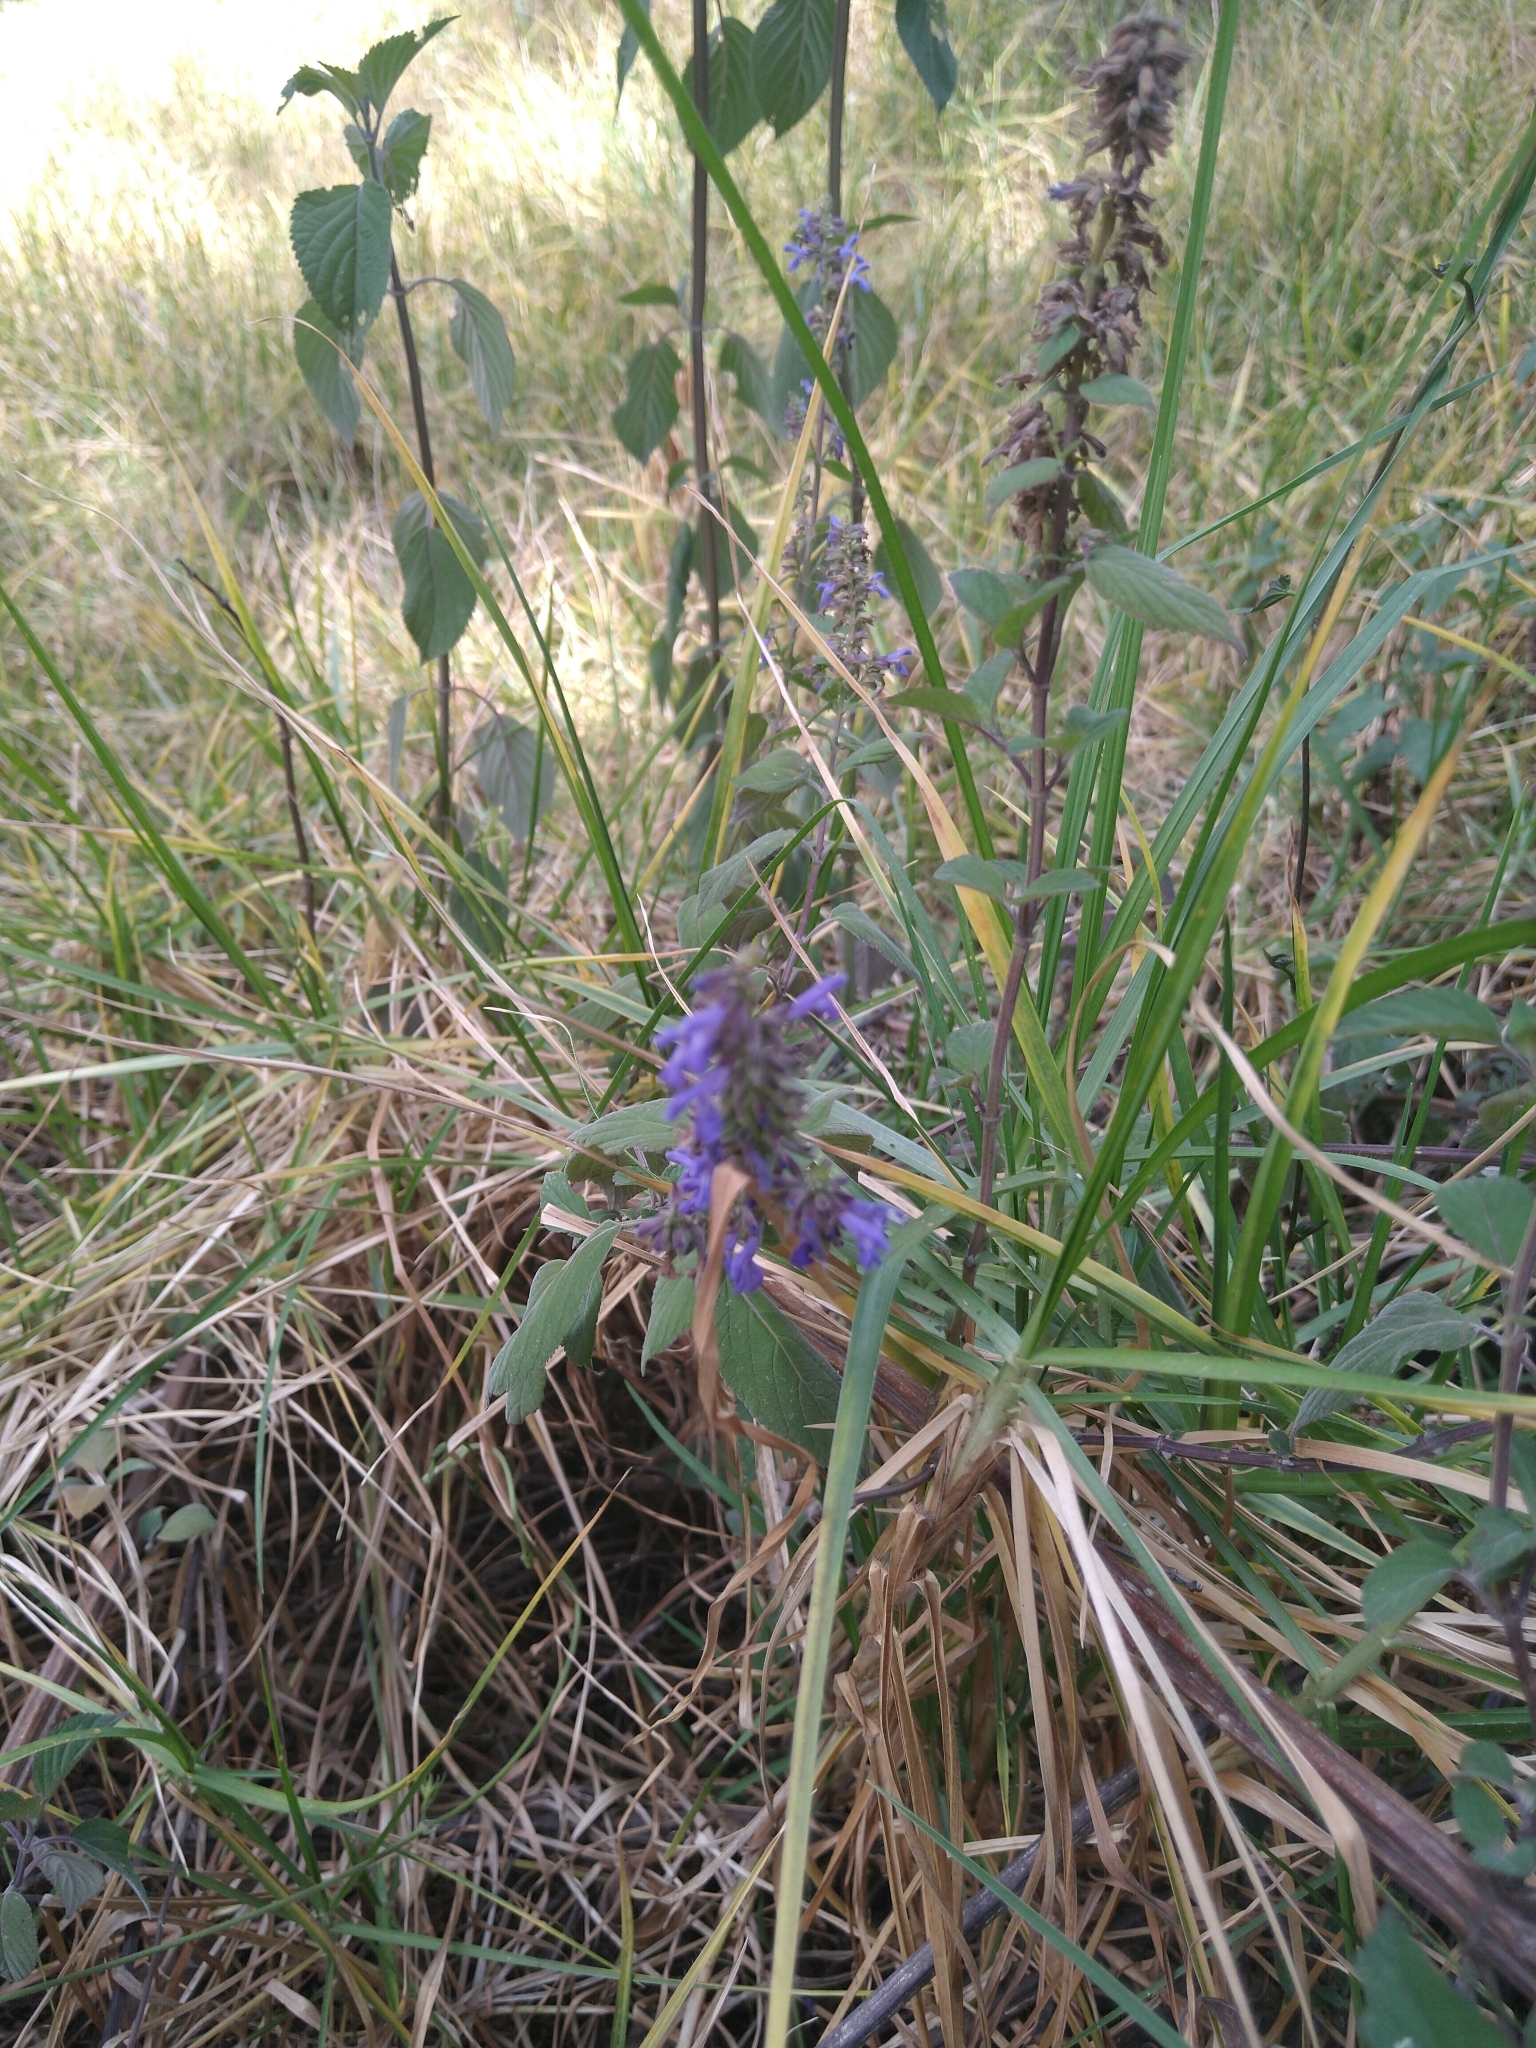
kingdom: Plantae
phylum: Tracheophyta
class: Magnoliopsida
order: Lamiales
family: Lamiaceae
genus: Salvia
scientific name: Salvia polystachia
